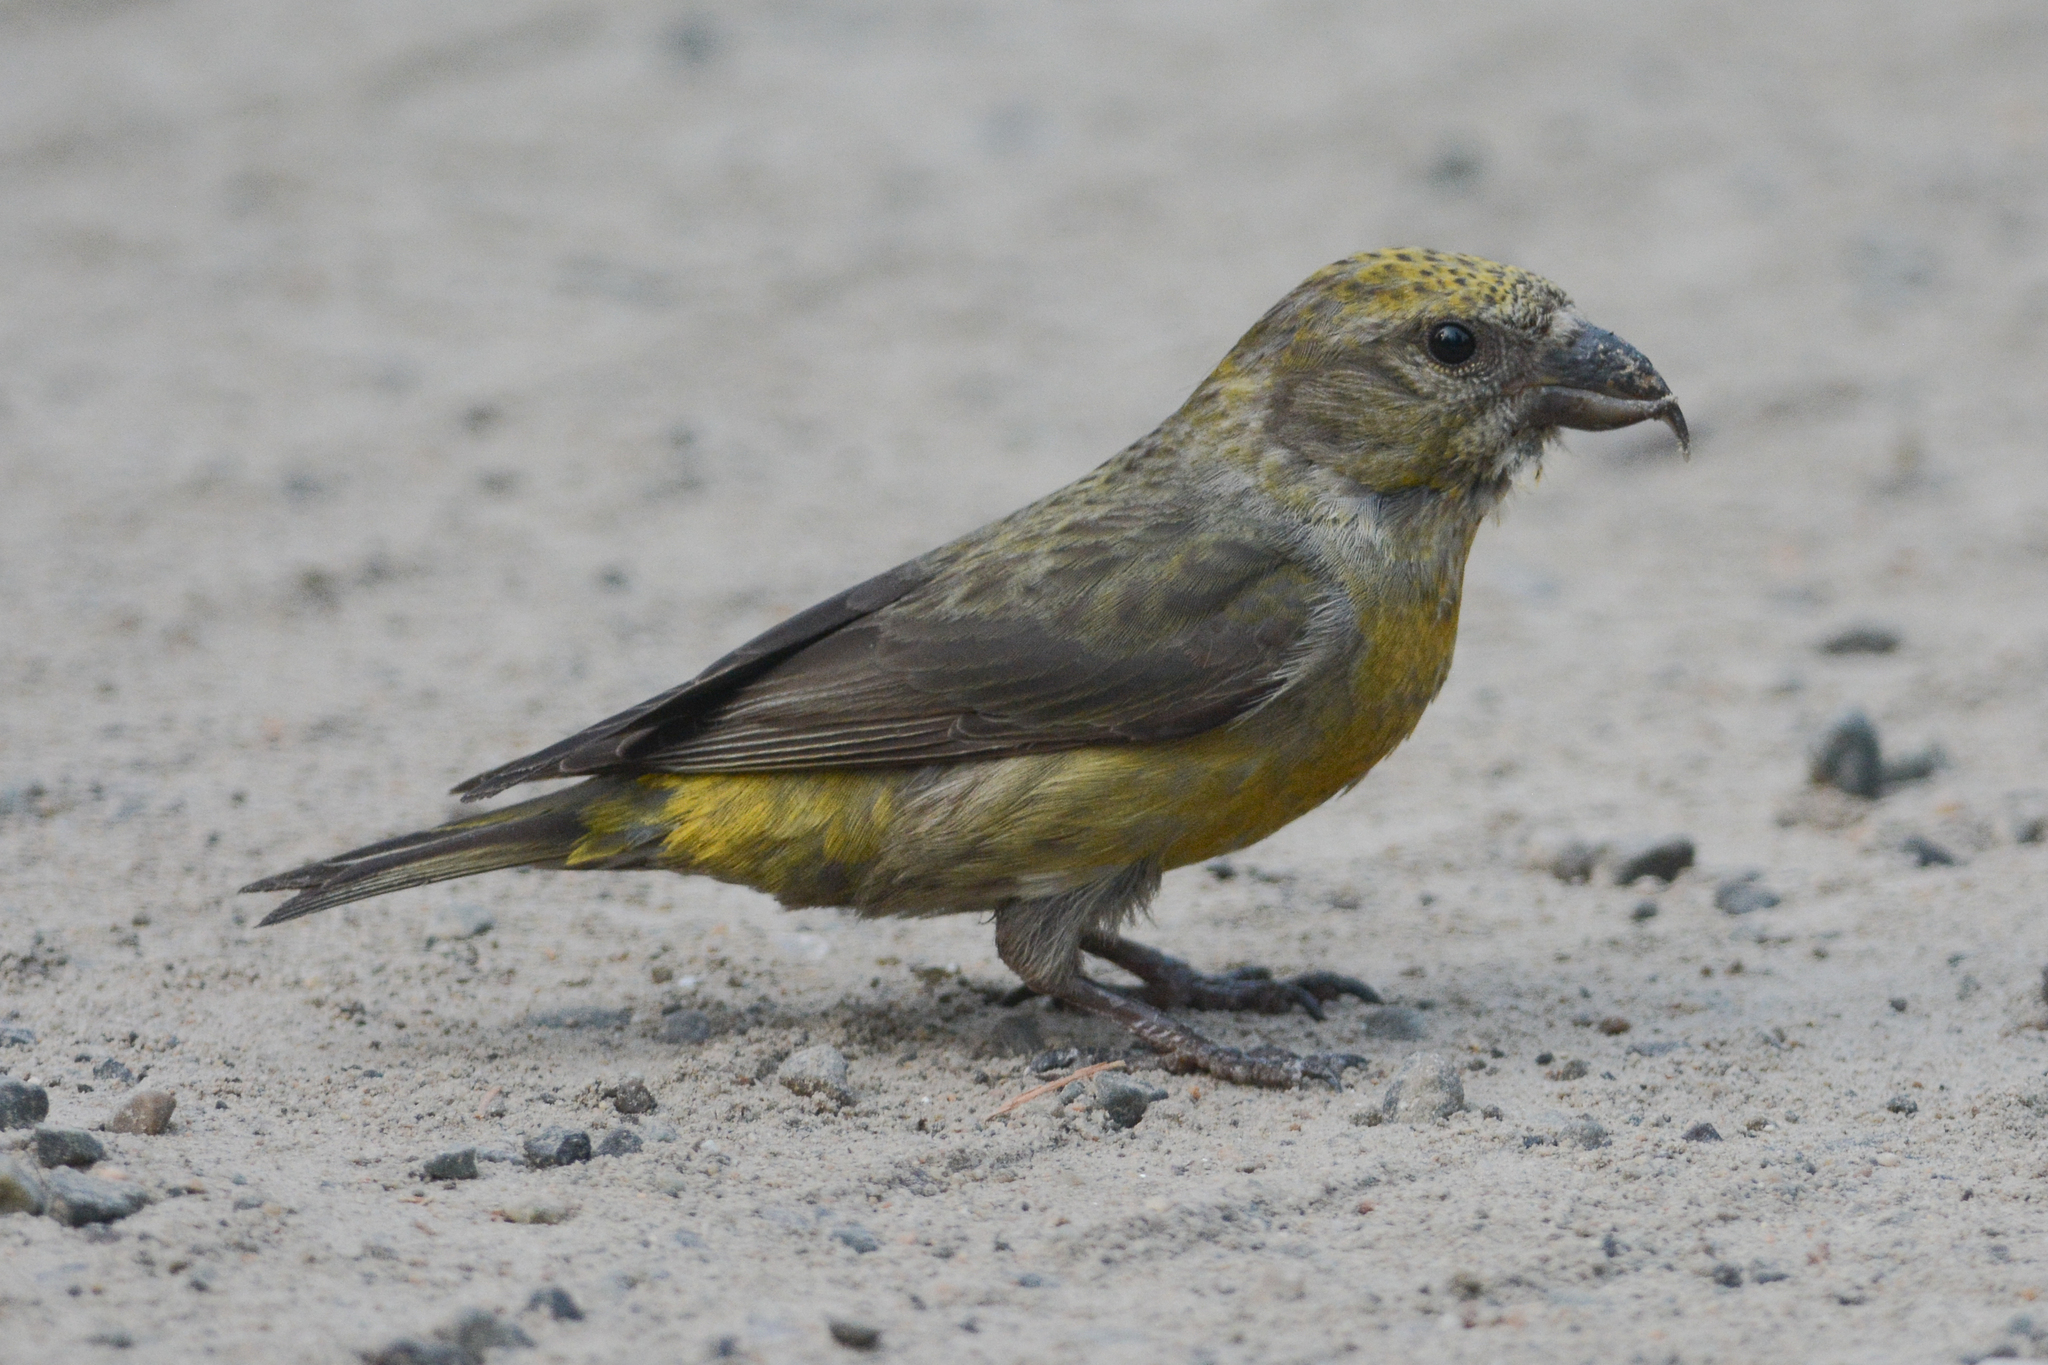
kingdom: Animalia
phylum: Chordata
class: Aves
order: Passeriformes
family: Fringillidae
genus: Loxia
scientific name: Loxia curvirostra
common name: Red crossbill
